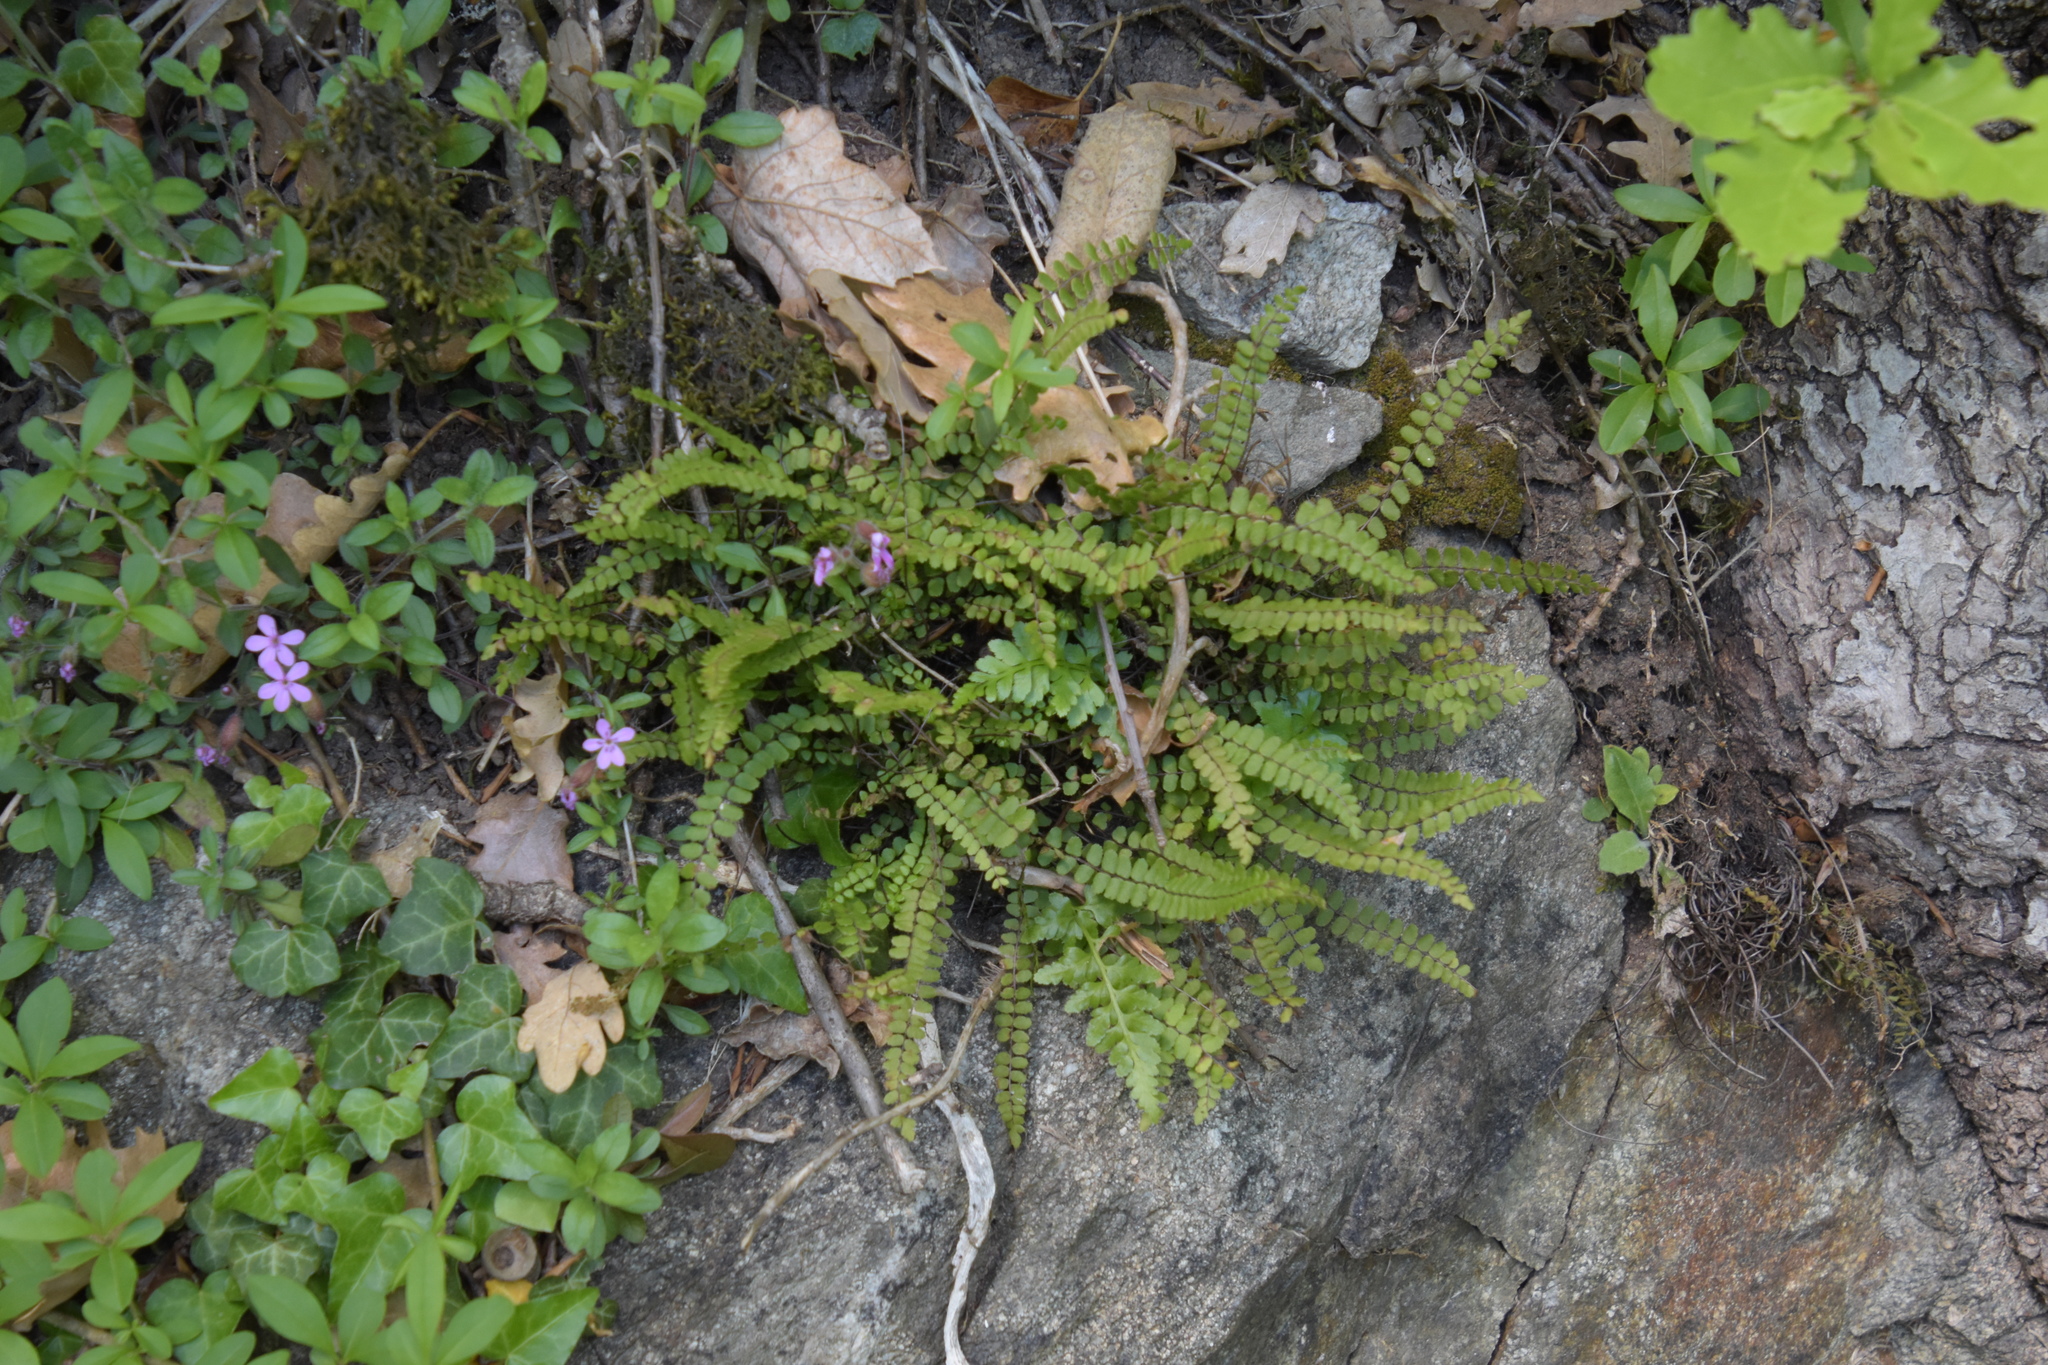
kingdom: Plantae
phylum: Tracheophyta
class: Polypodiopsida
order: Polypodiales
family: Aspleniaceae
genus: Asplenium
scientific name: Asplenium trichomanes
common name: Maidenhair spleenwort
